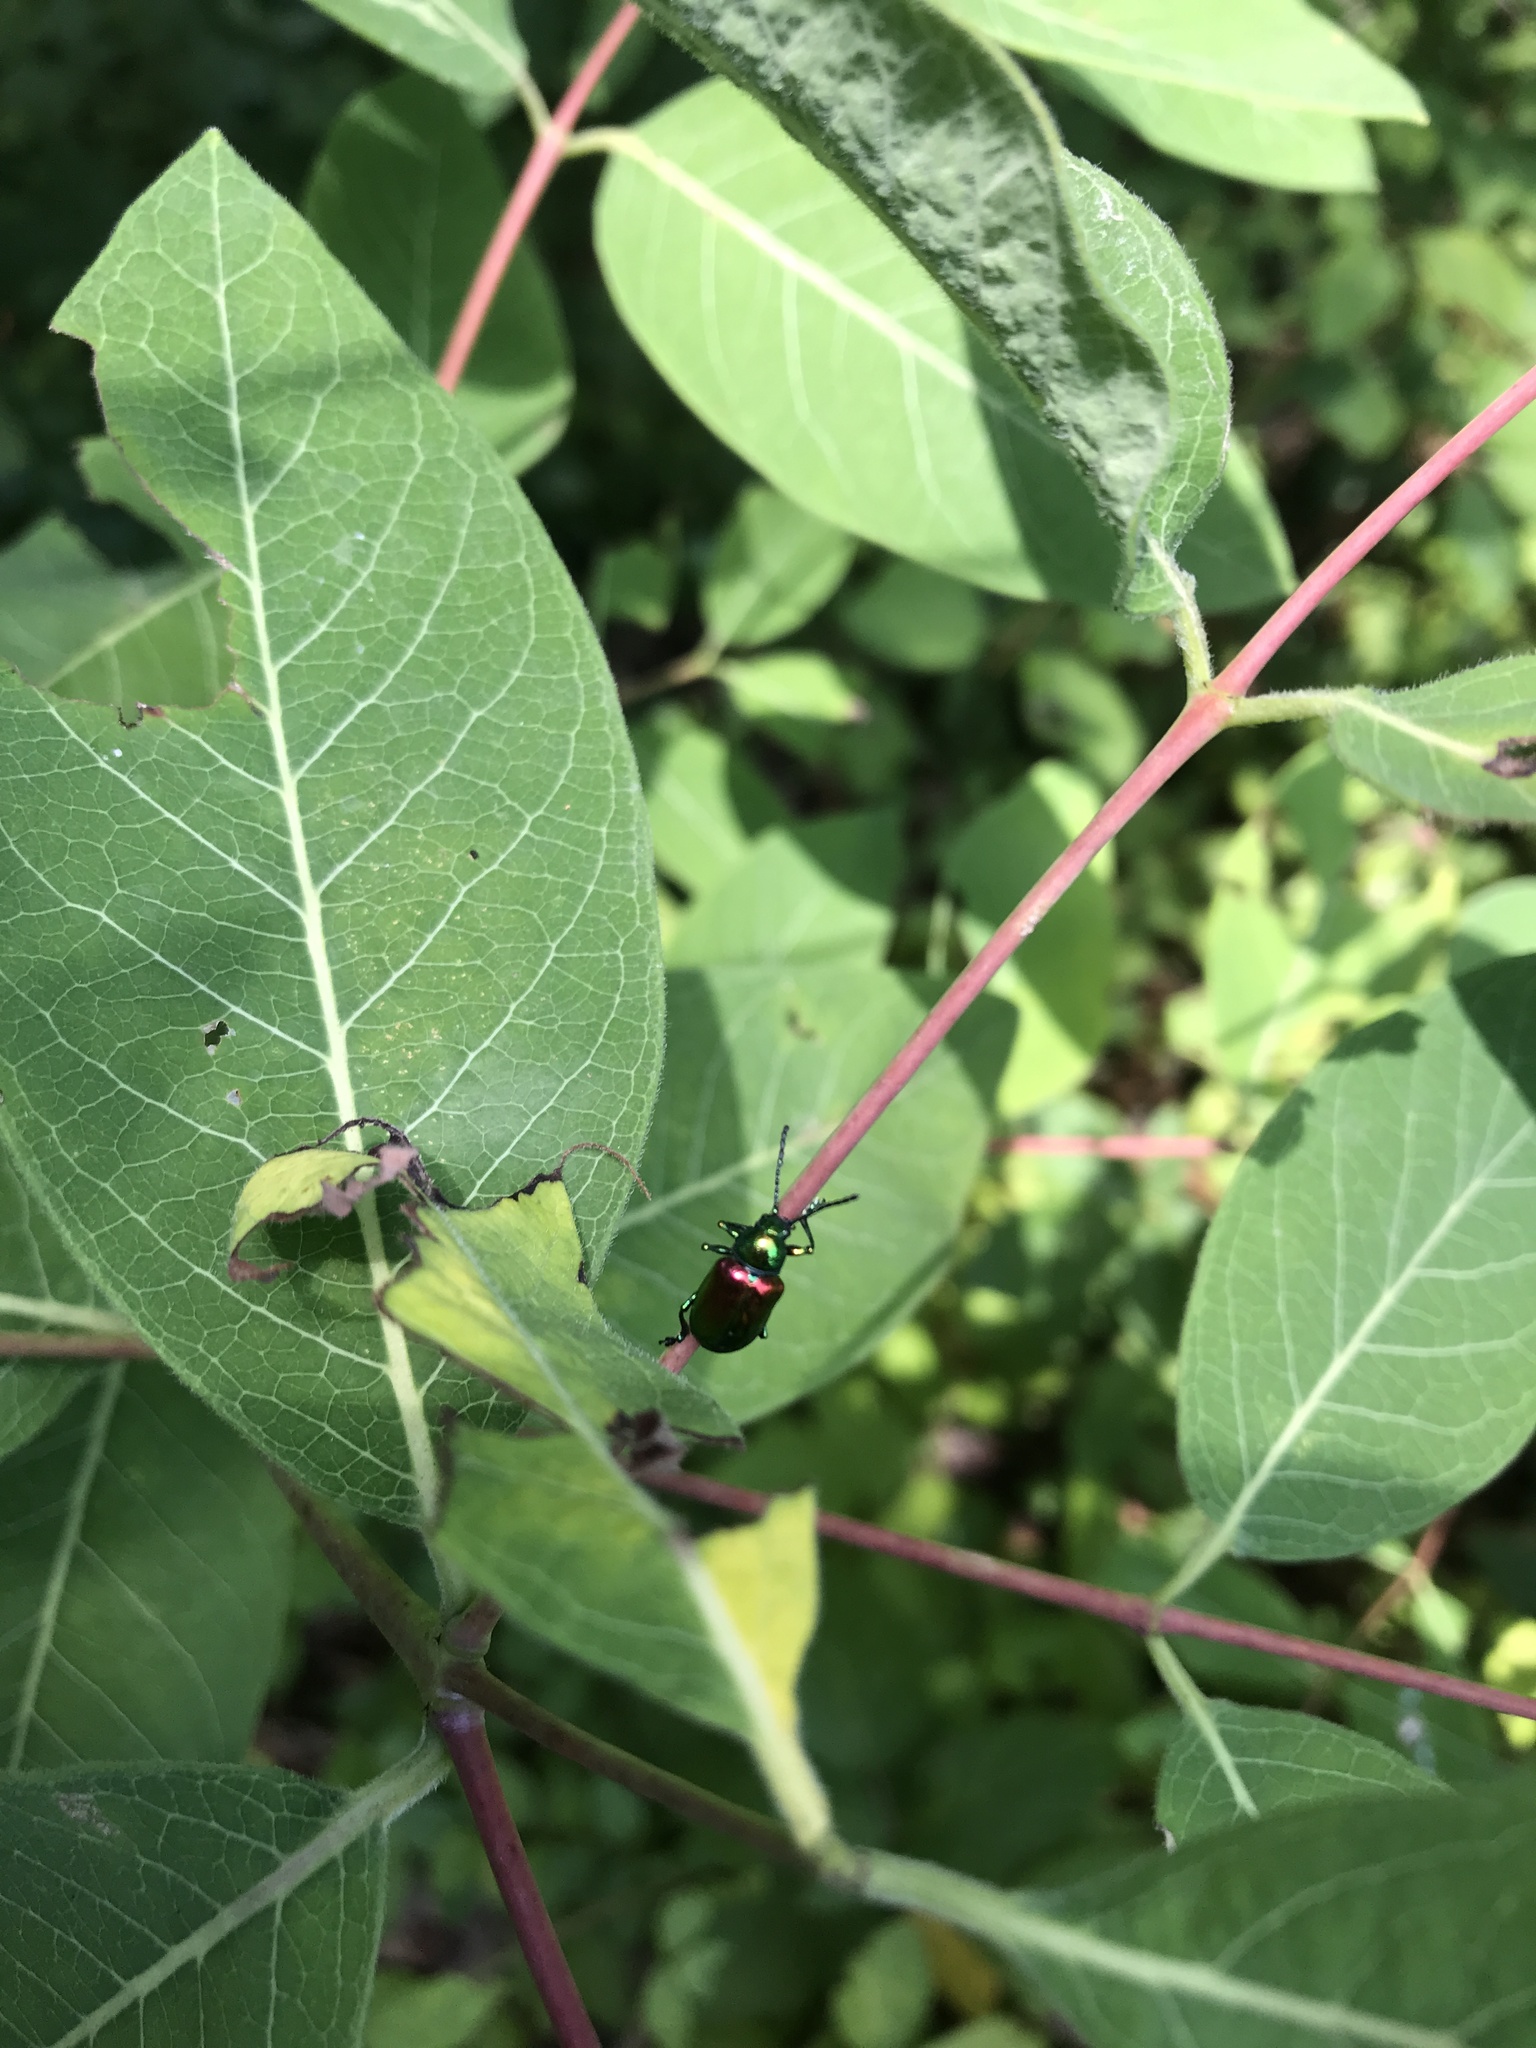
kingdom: Animalia
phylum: Arthropoda
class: Insecta
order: Coleoptera
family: Chrysomelidae
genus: Chrysochus
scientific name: Chrysochus auratus
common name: Dogbane leaf beetle
